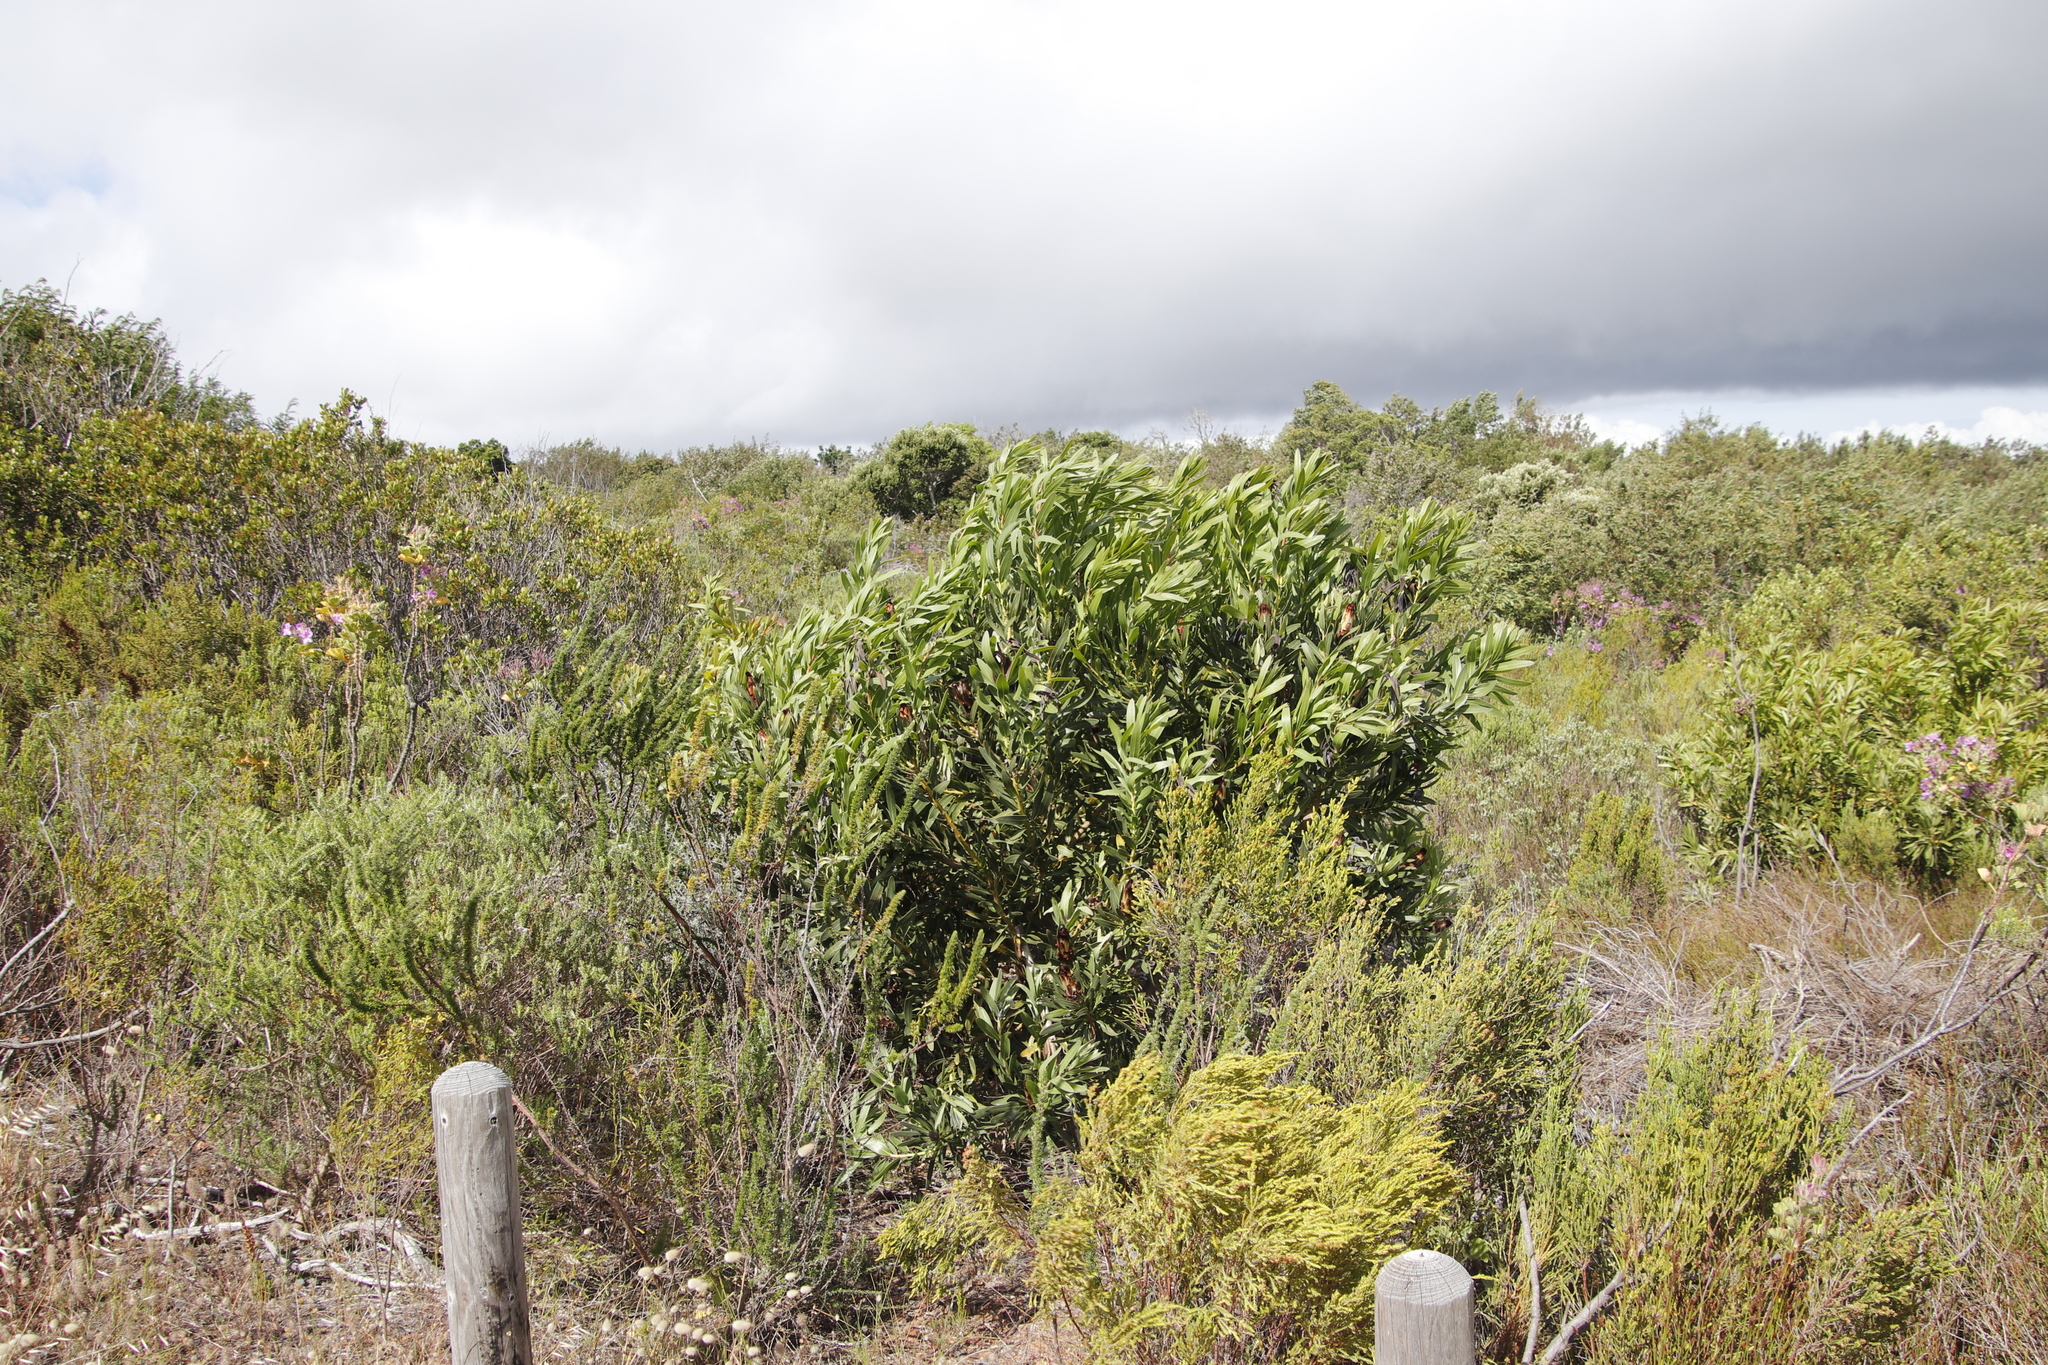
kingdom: Plantae
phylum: Tracheophyta
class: Magnoliopsida
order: Proteales
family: Proteaceae
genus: Protea
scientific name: Protea lepidocarpodendron
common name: Black-bearded protea
